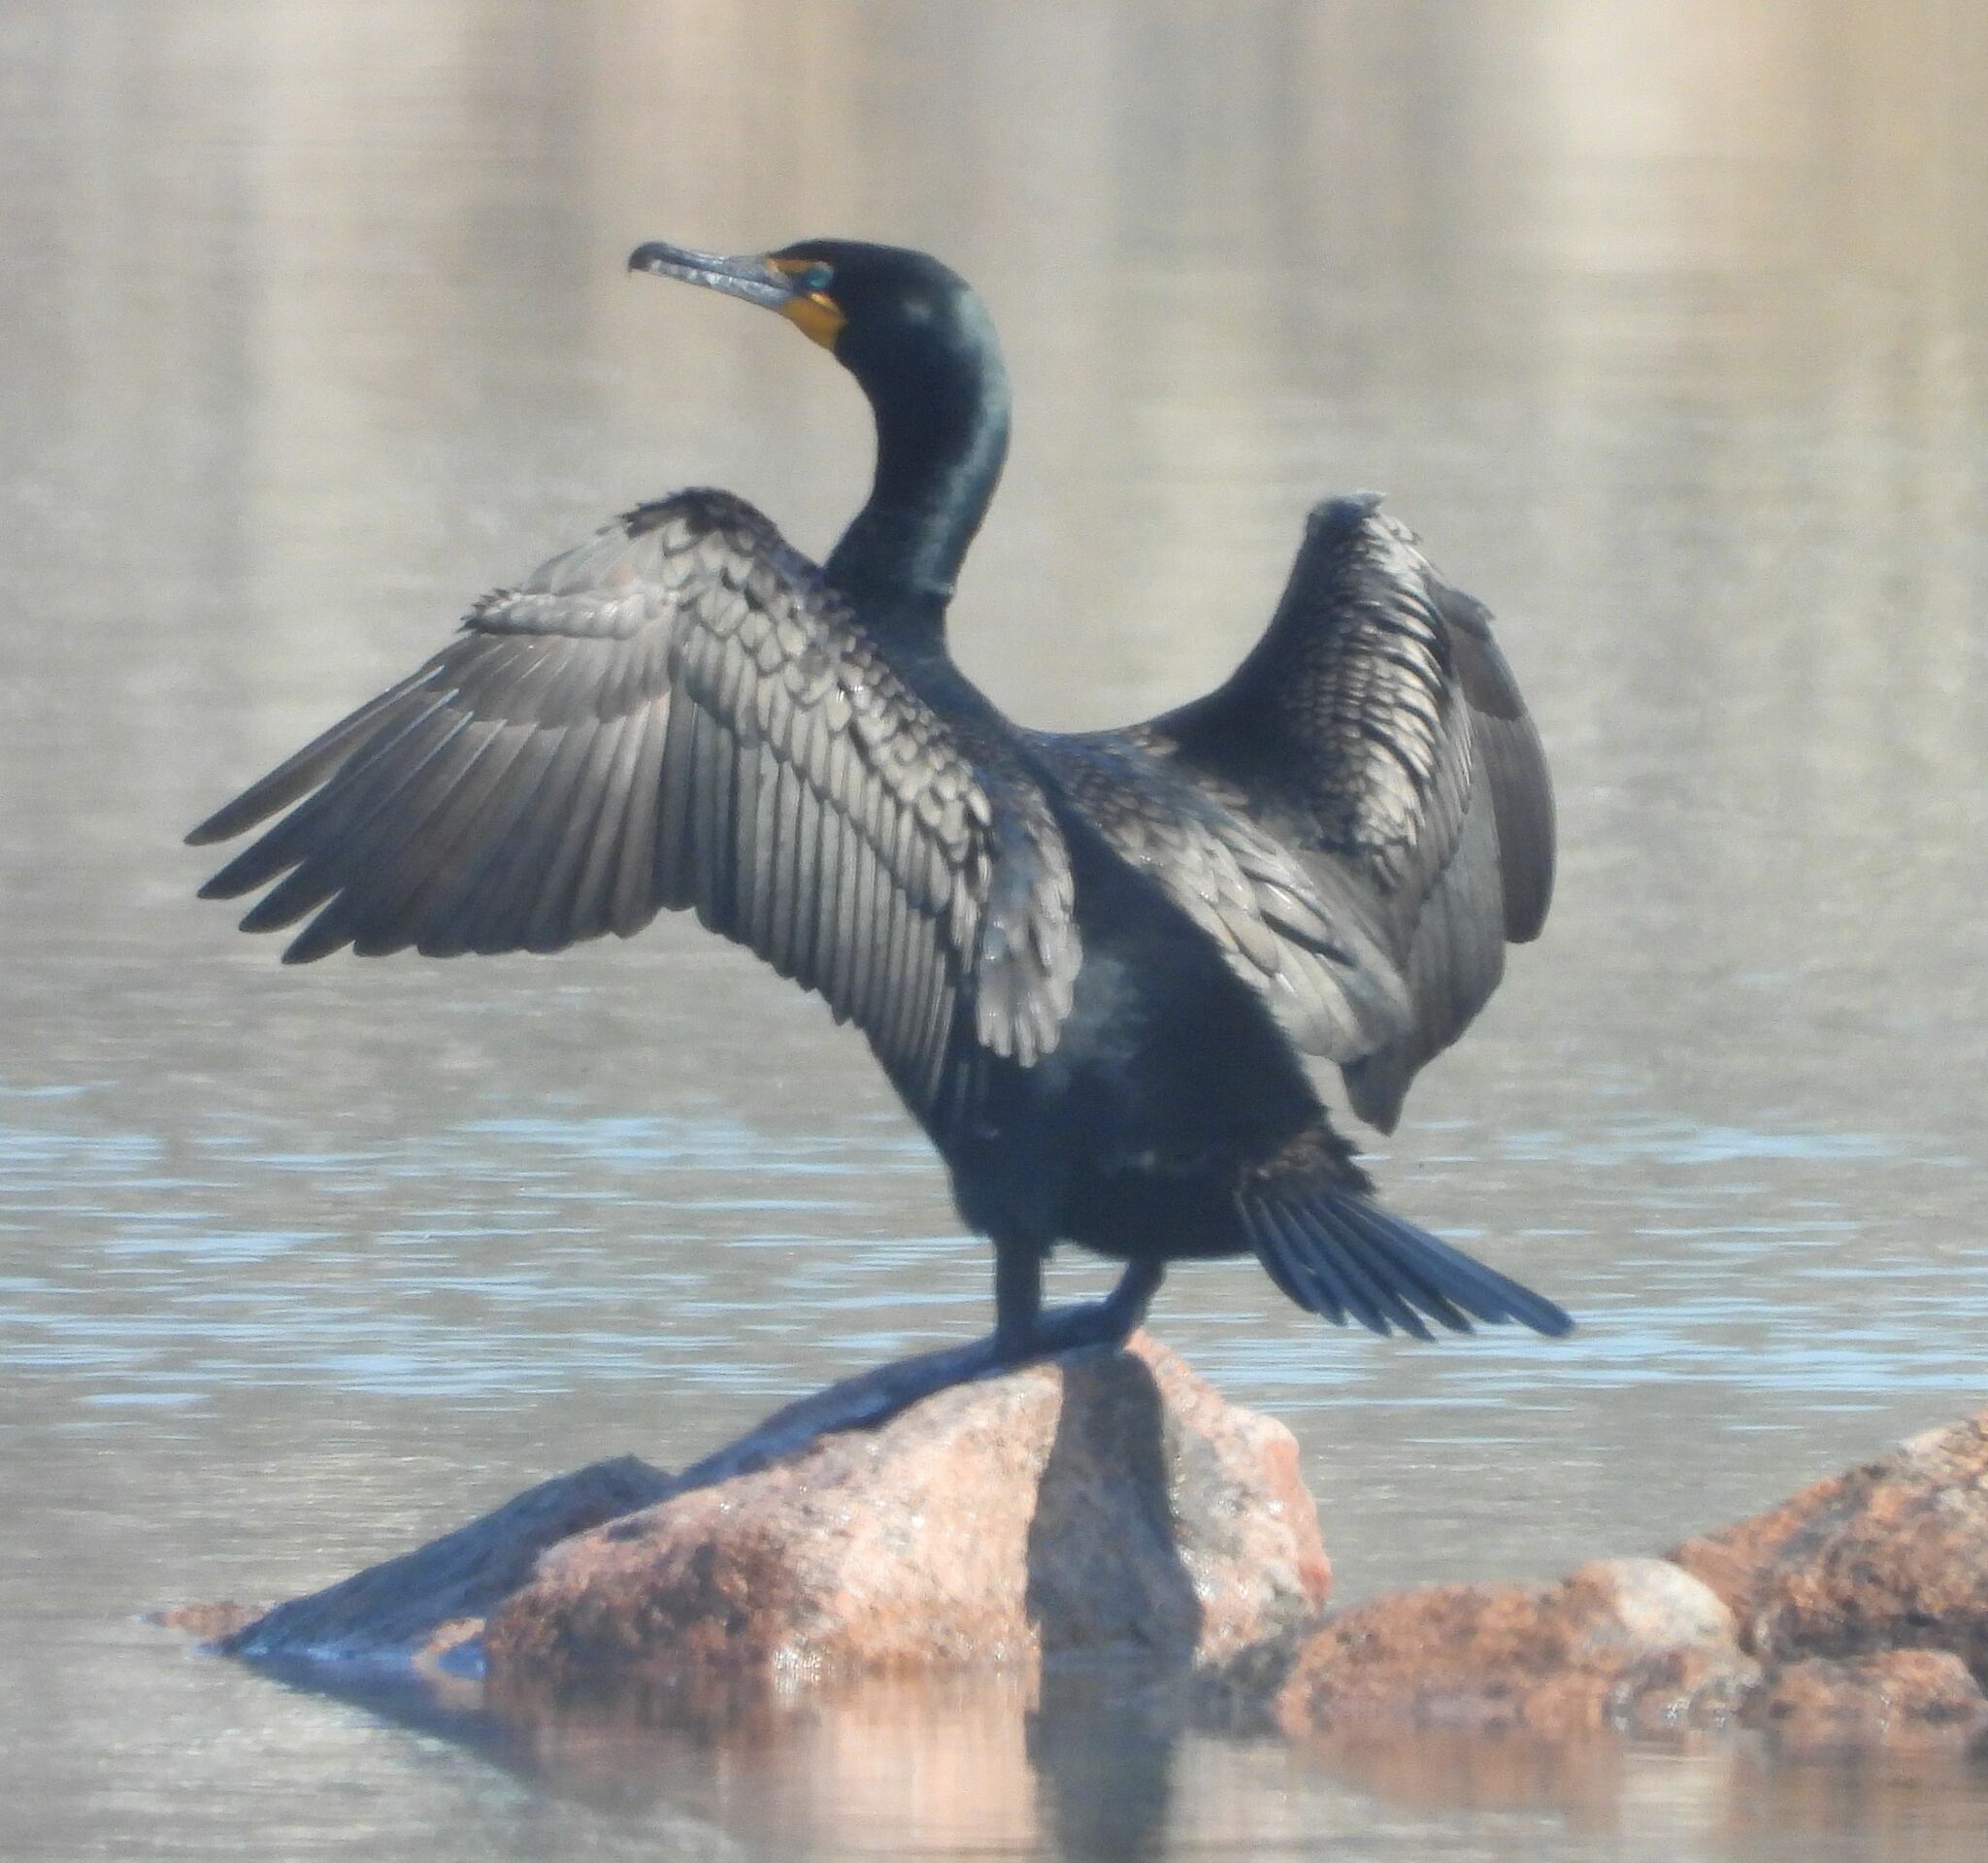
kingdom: Animalia
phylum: Chordata
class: Aves
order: Suliformes
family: Phalacrocoracidae
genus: Phalacrocorax
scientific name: Phalacrocorax auritus
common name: Double-crested cormorant
